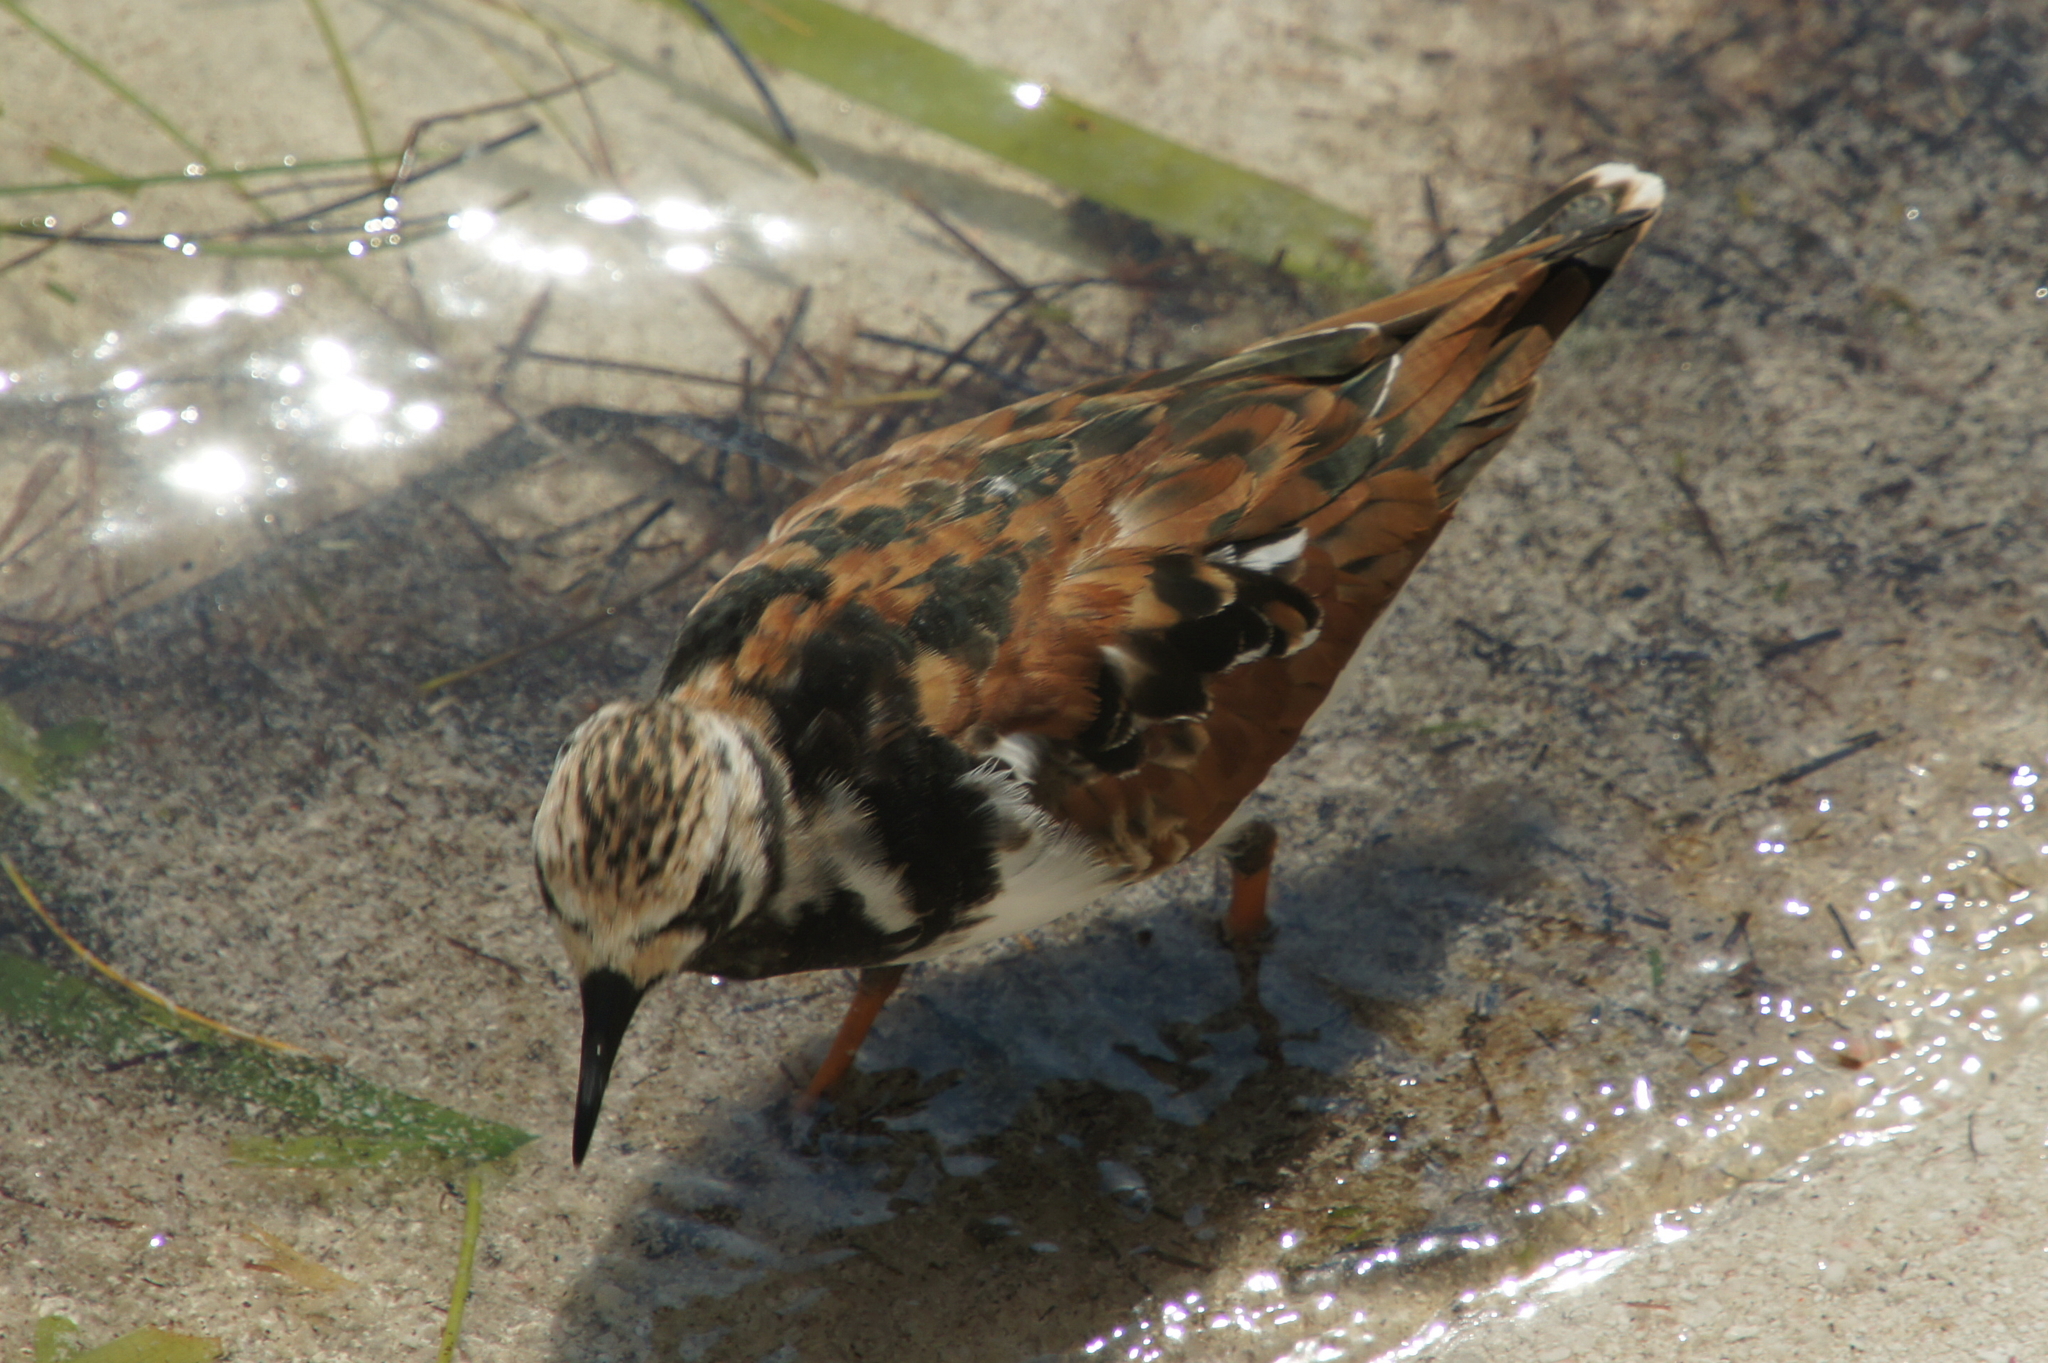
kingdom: Animalia
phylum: Chordata
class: Aves
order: Charadriiformes
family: Scolopacidae
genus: Arenaria
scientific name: Arenaria interpres
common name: Ruddy turnstone
